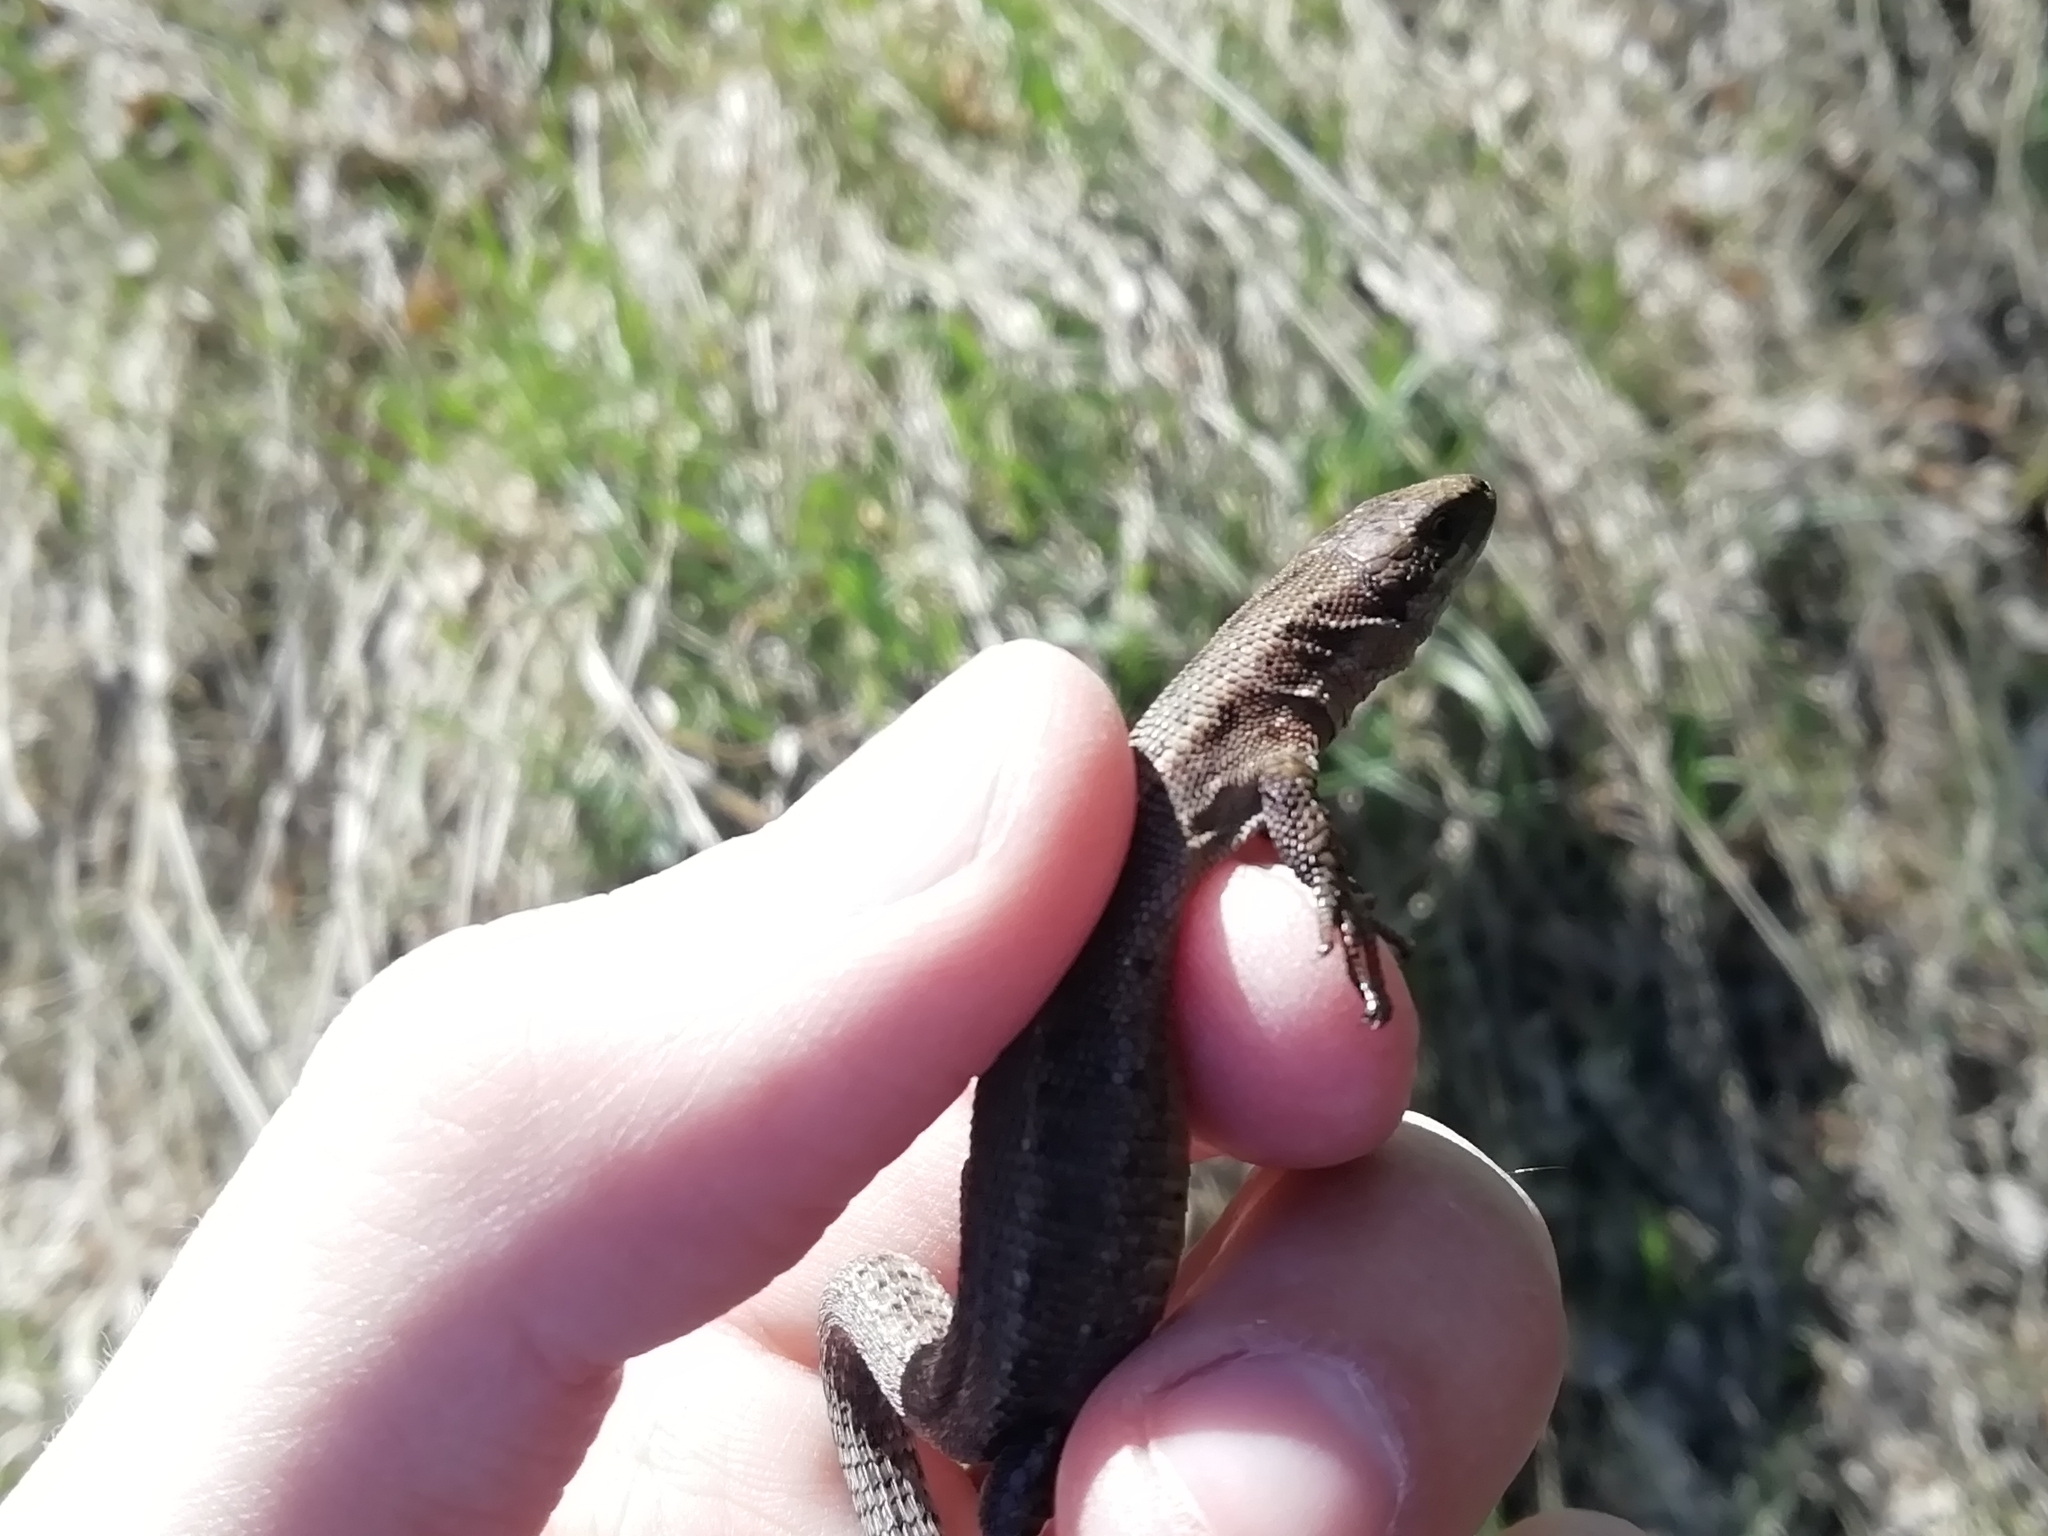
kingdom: Animalia
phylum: Chordata
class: Squamata
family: Lacertidae
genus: Zootoca
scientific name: Zootoca vivipara
